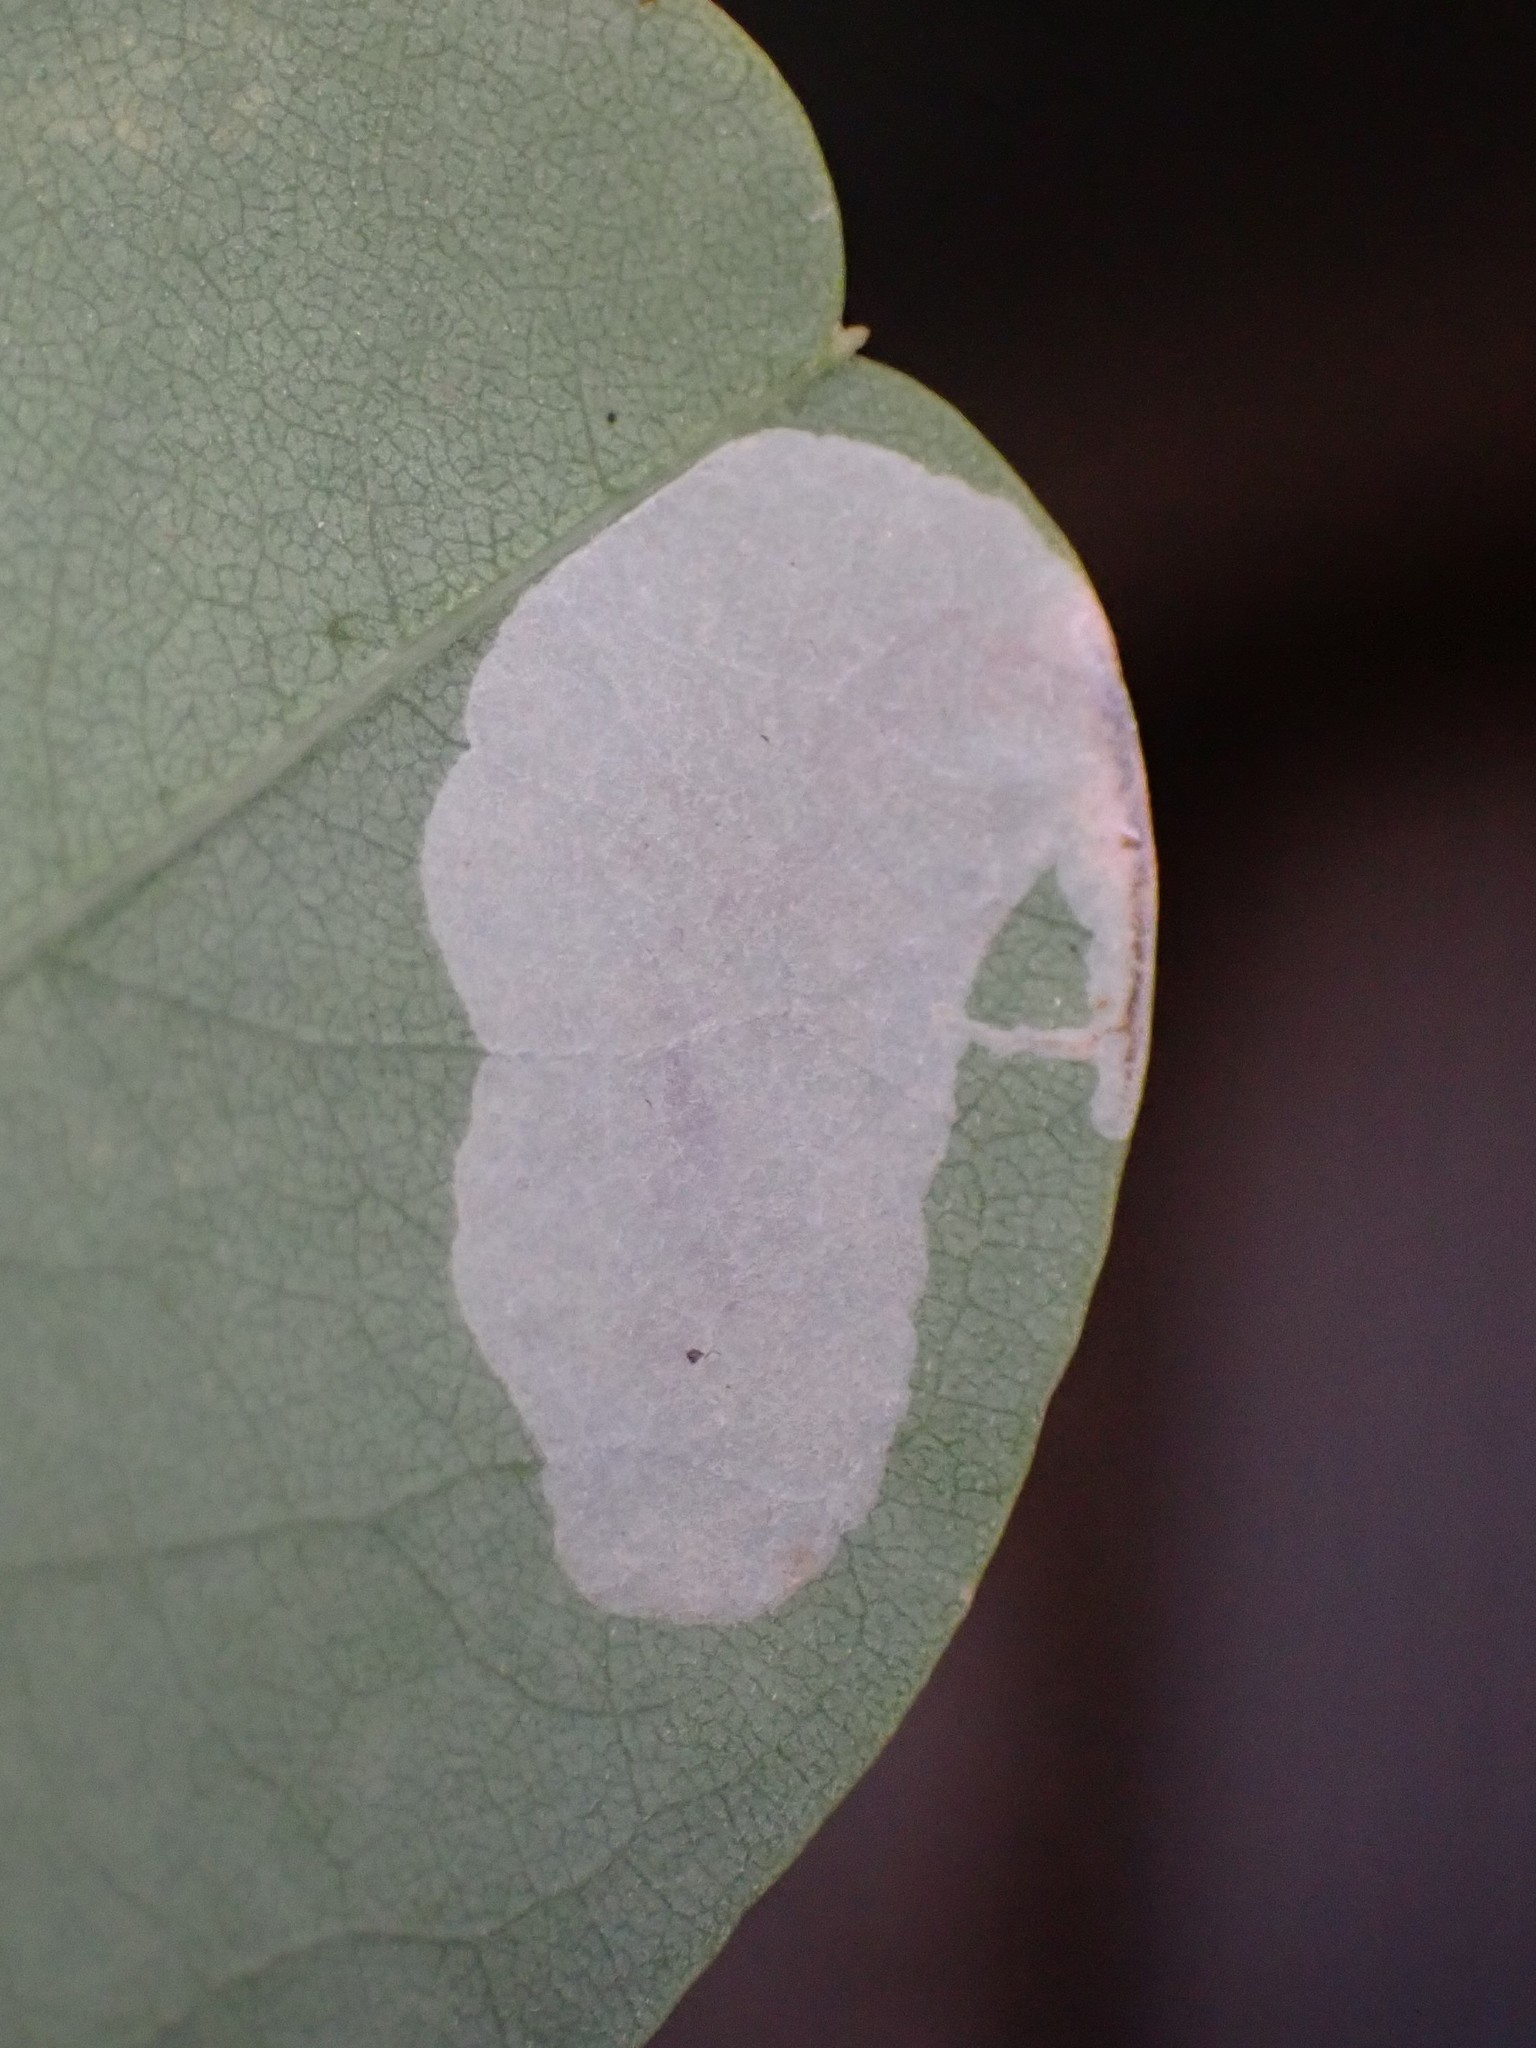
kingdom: Animalia
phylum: Arthropoda
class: Insecta
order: Lepidoptera
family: Gracillariidae
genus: Macrosaccus
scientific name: Macrosaccus robiniella
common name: Leaf blotch miner moth
